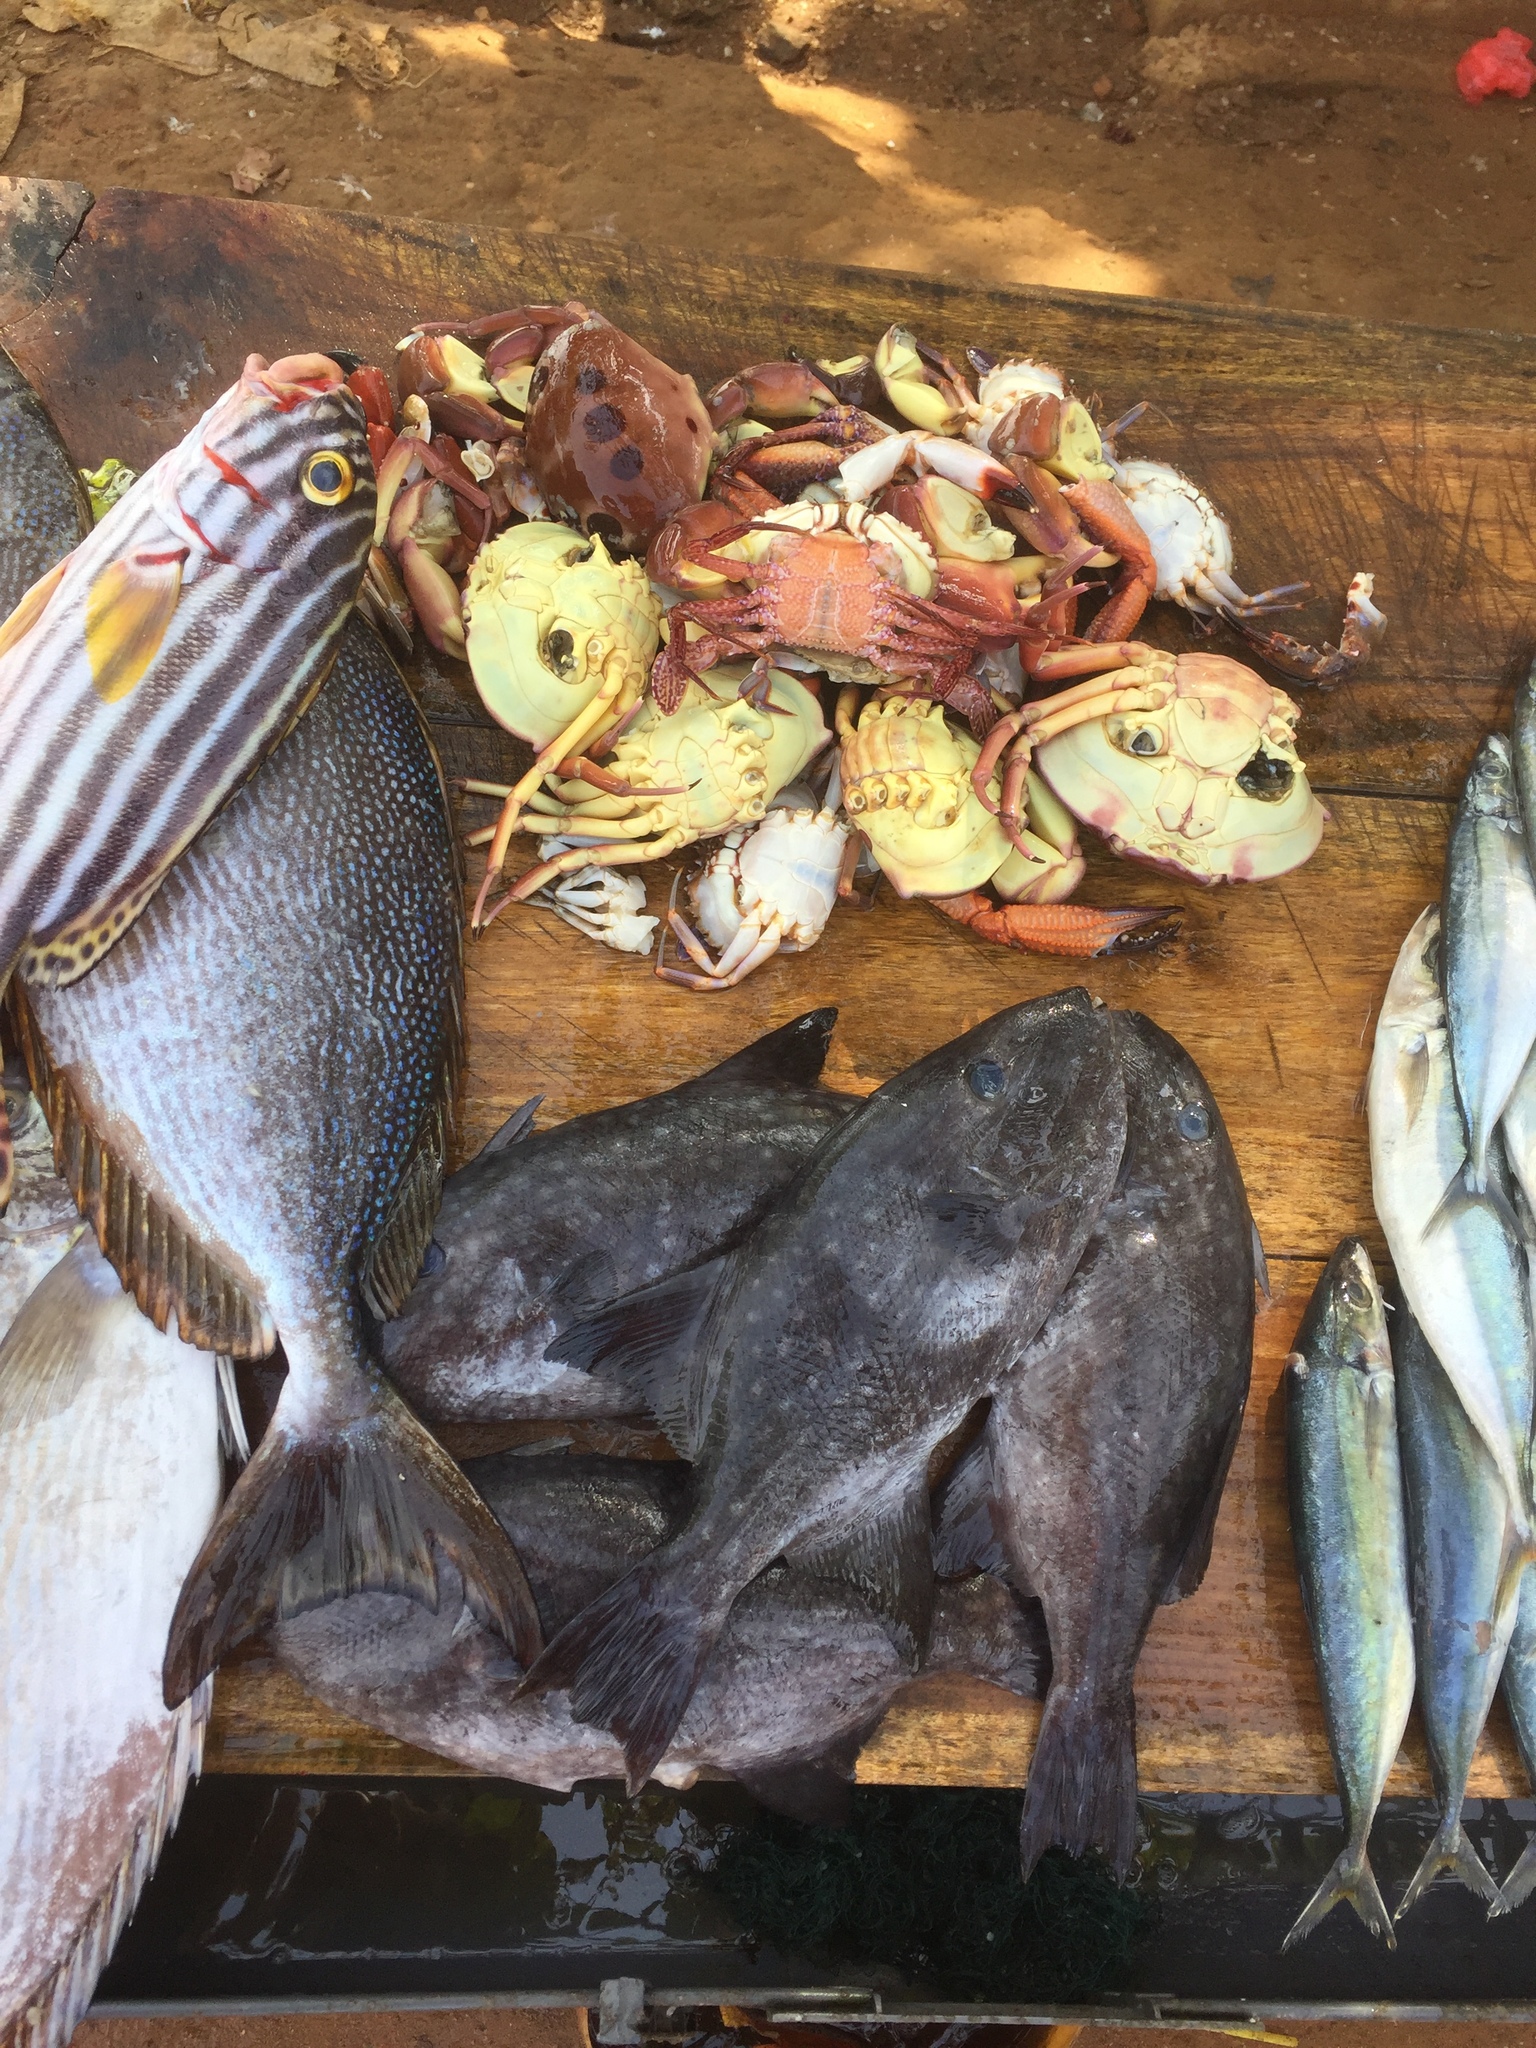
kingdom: Animalia
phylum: Chordata
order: Tetraodontiformes
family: Balistidae
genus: Canthidermis
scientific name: Canthidermis maculata
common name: Rough triggerfish
